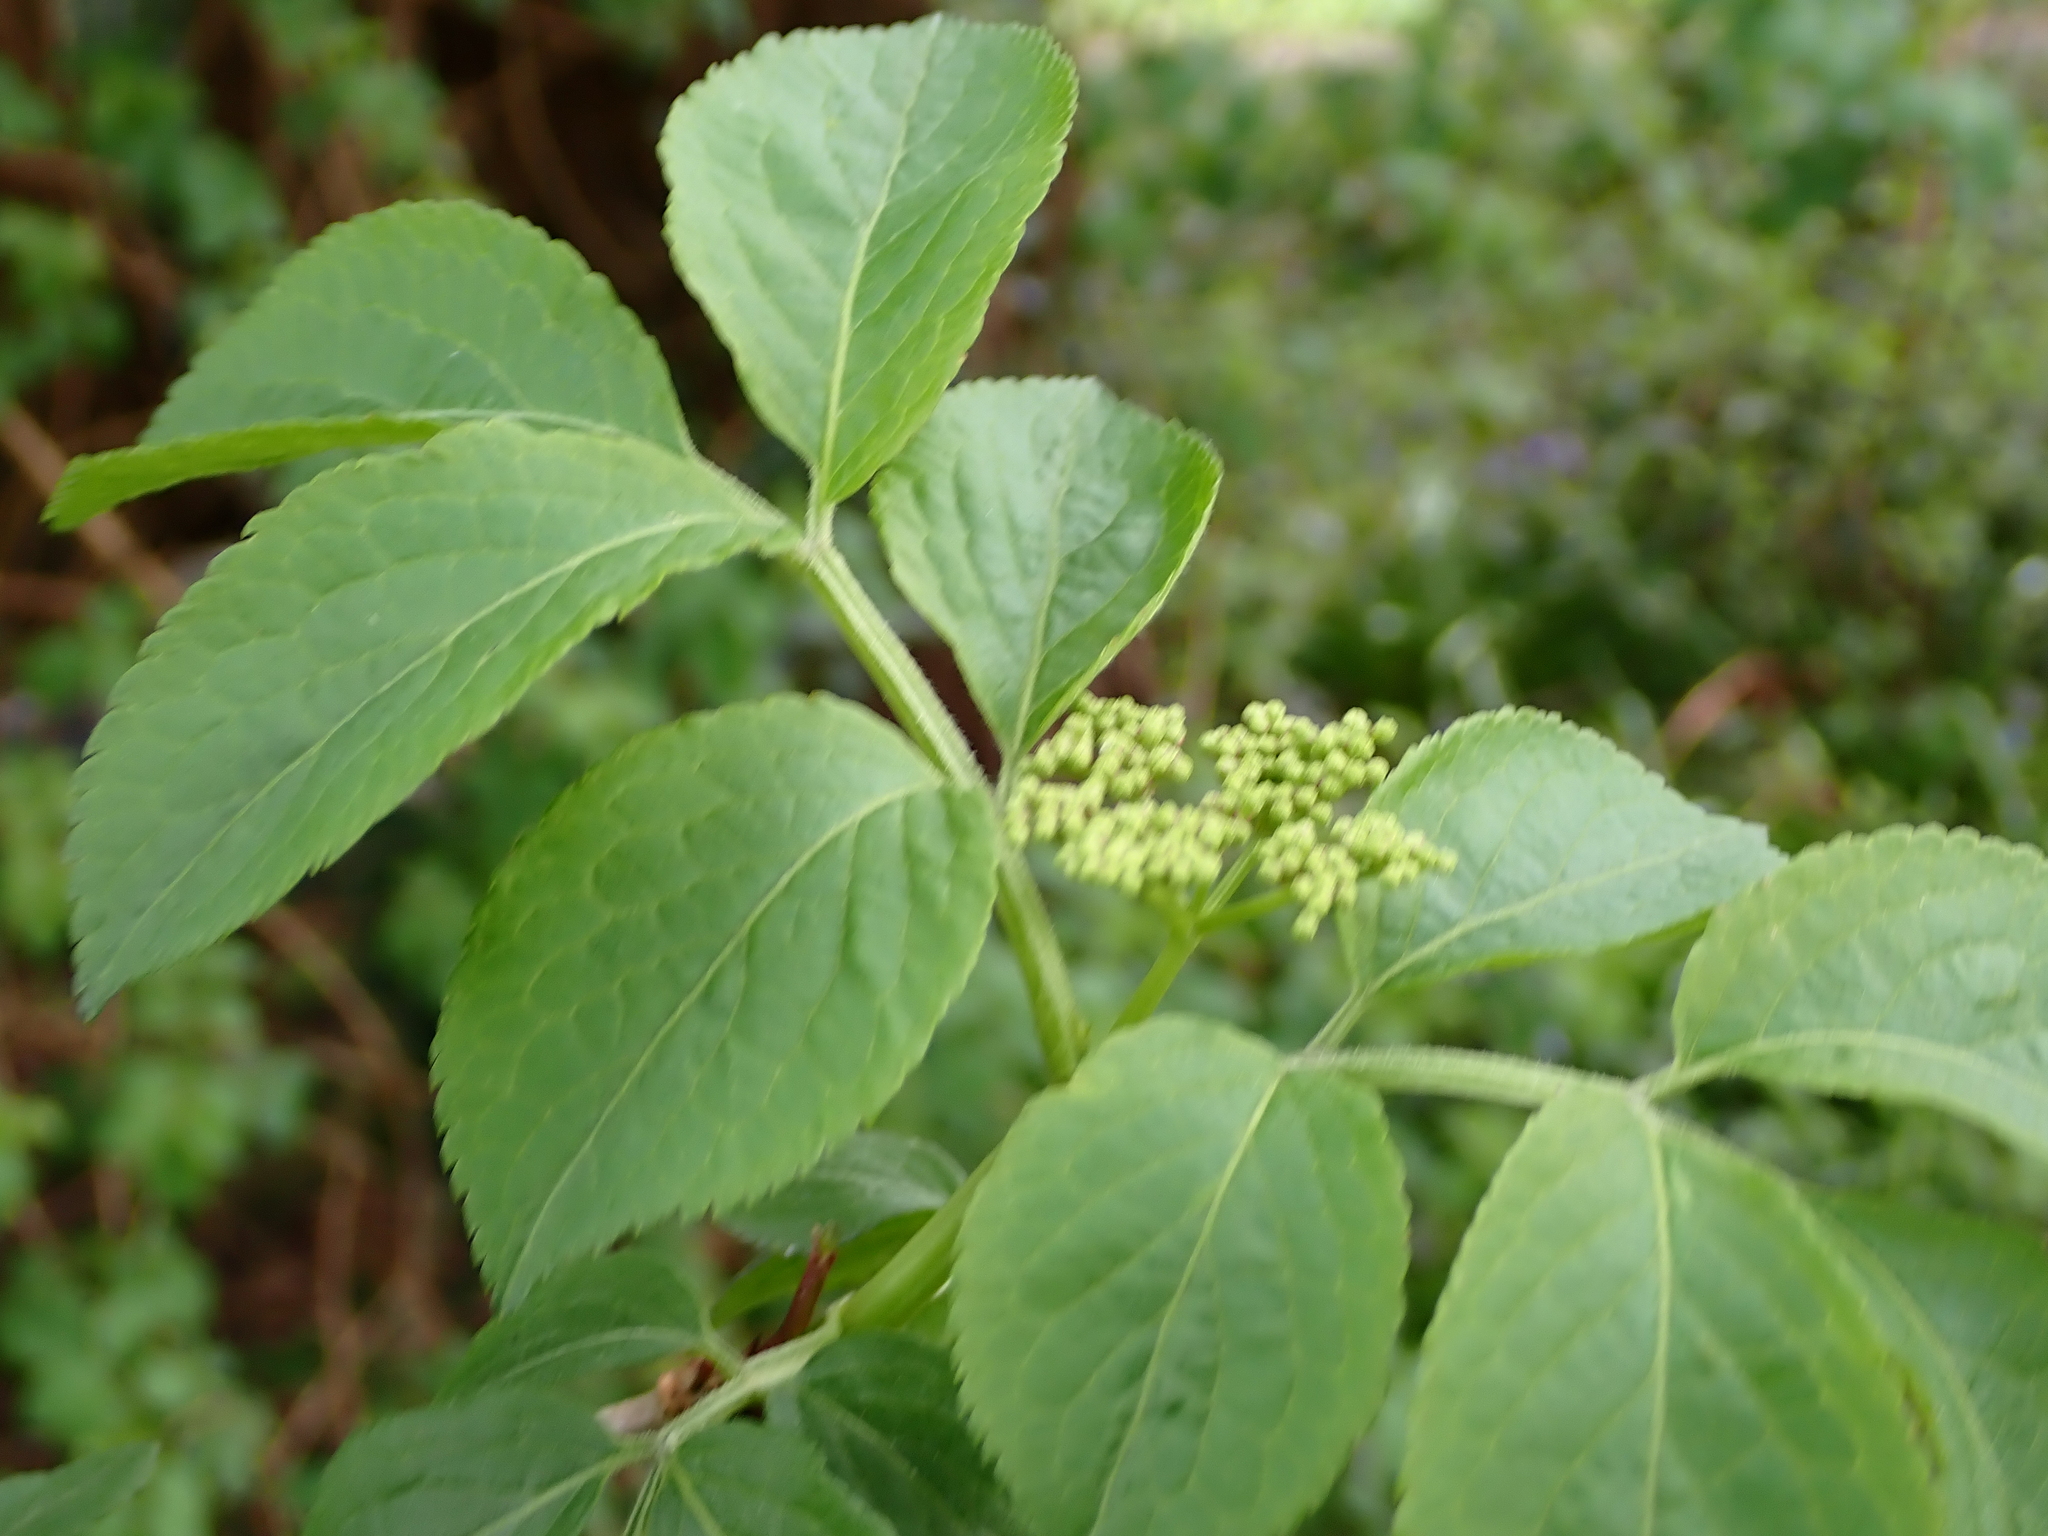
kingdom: Plantae
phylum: Tracheophyta
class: Magnoliopsida
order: Dipsacales
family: Viburnaceae
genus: Sambucus
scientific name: Sambucus nigra
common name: Elder
